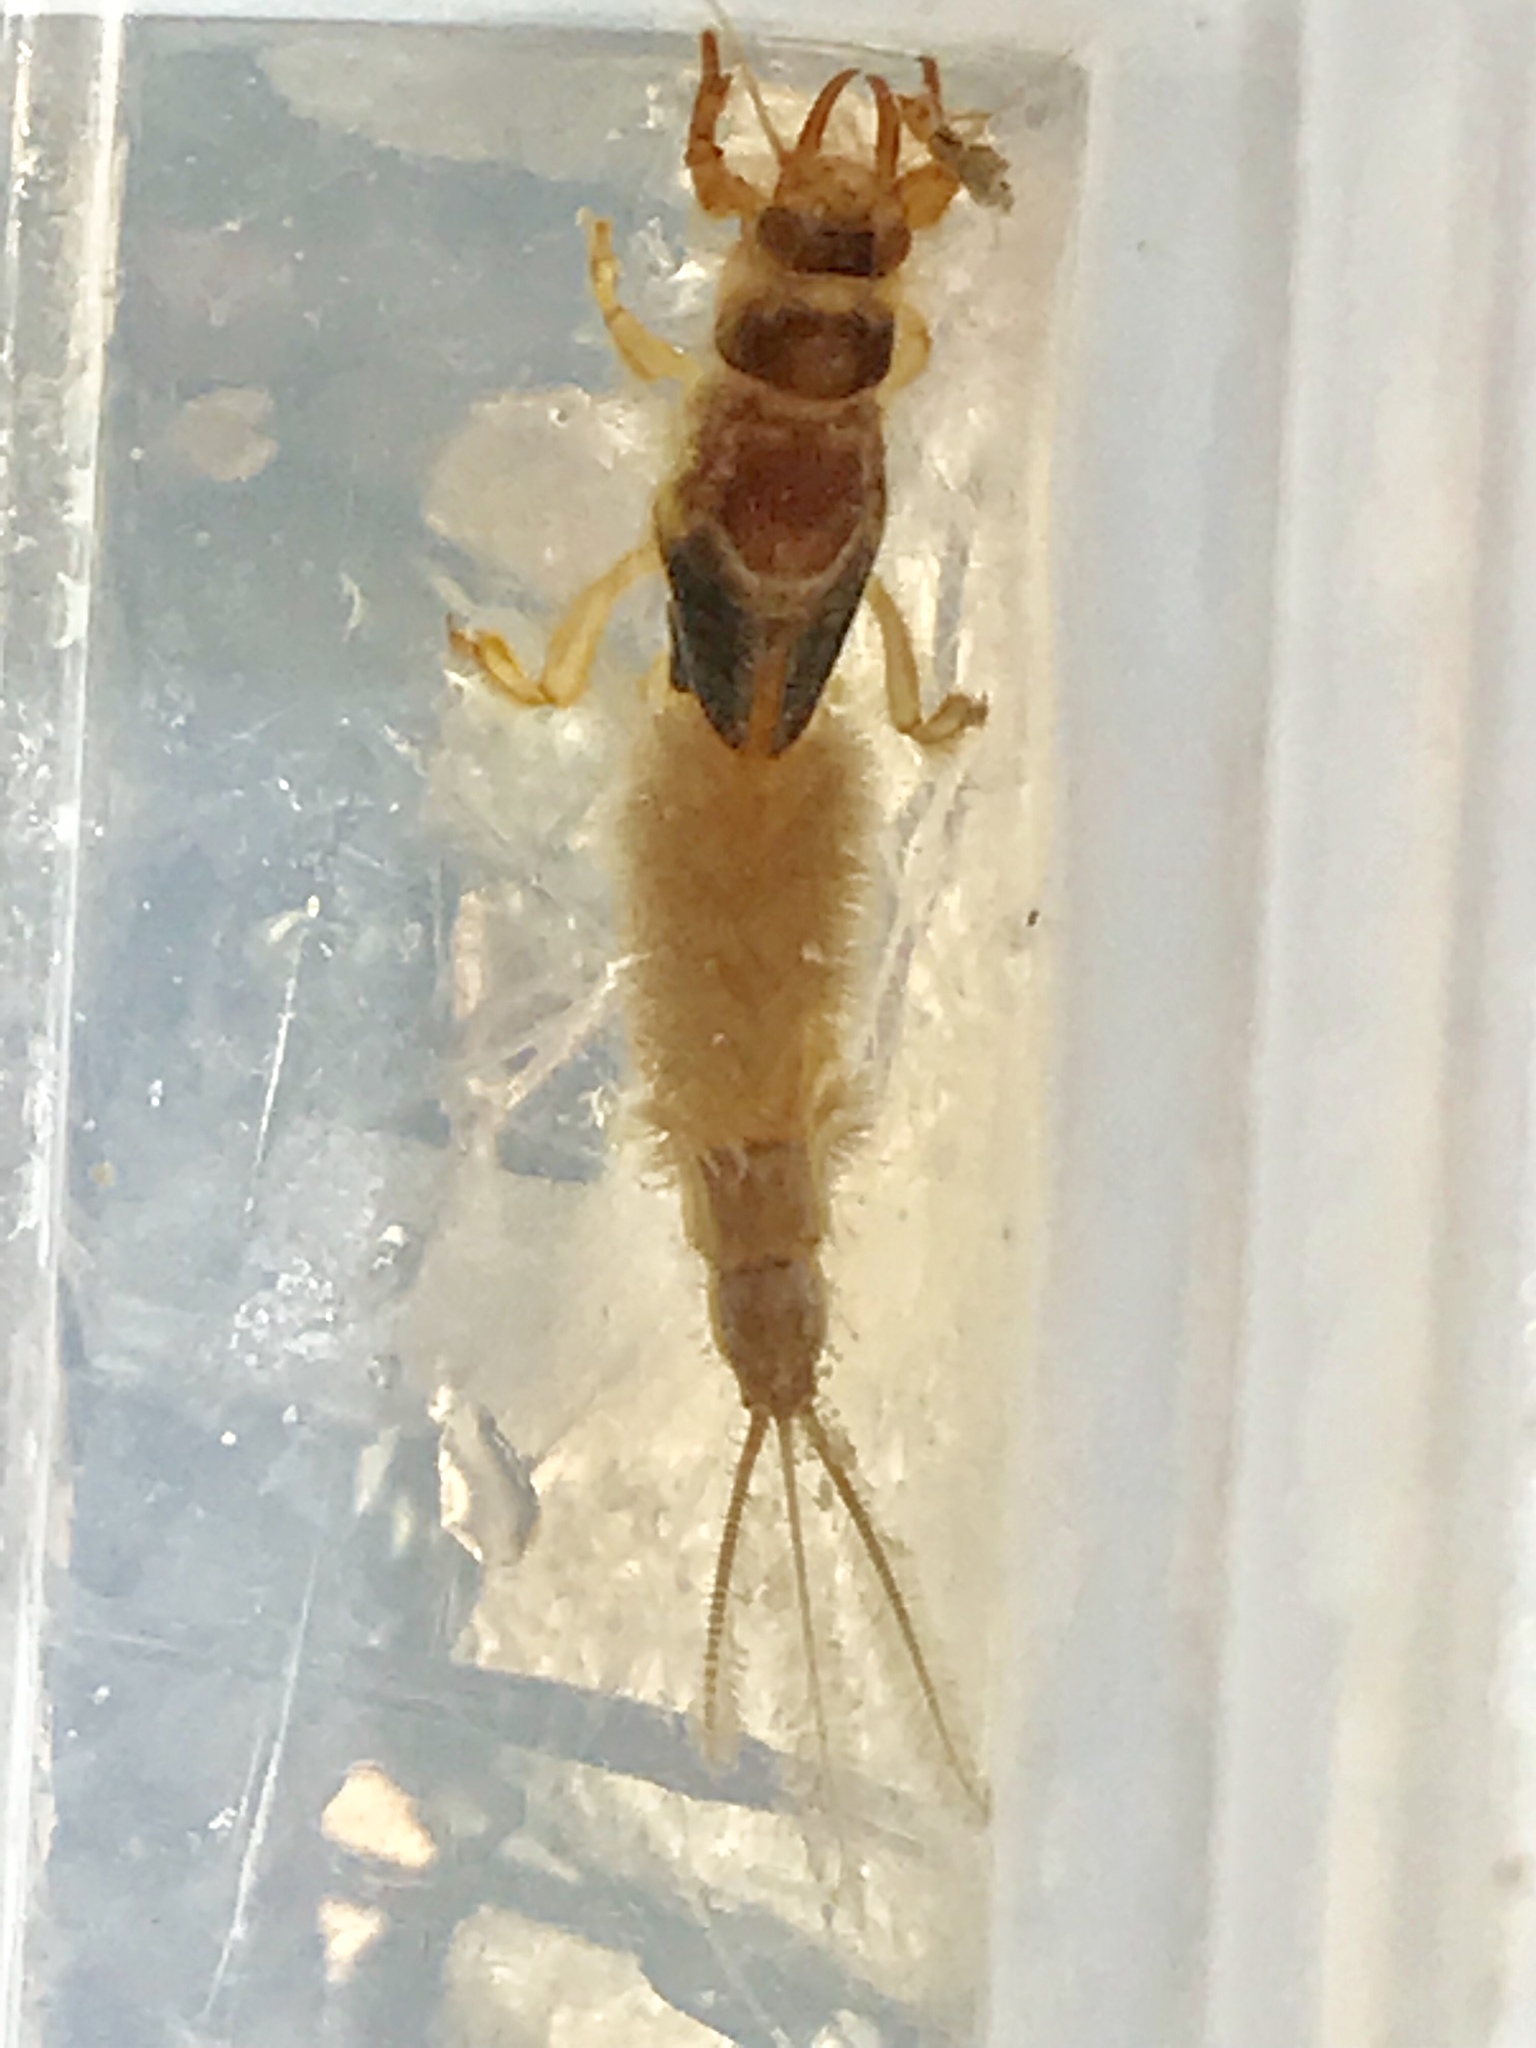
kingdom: Animalia
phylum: Arthropoda
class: Insecta
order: Ephemeroptera
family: Ichthybotidae
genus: Ichthybotus
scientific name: Ichthybotus bicolor
